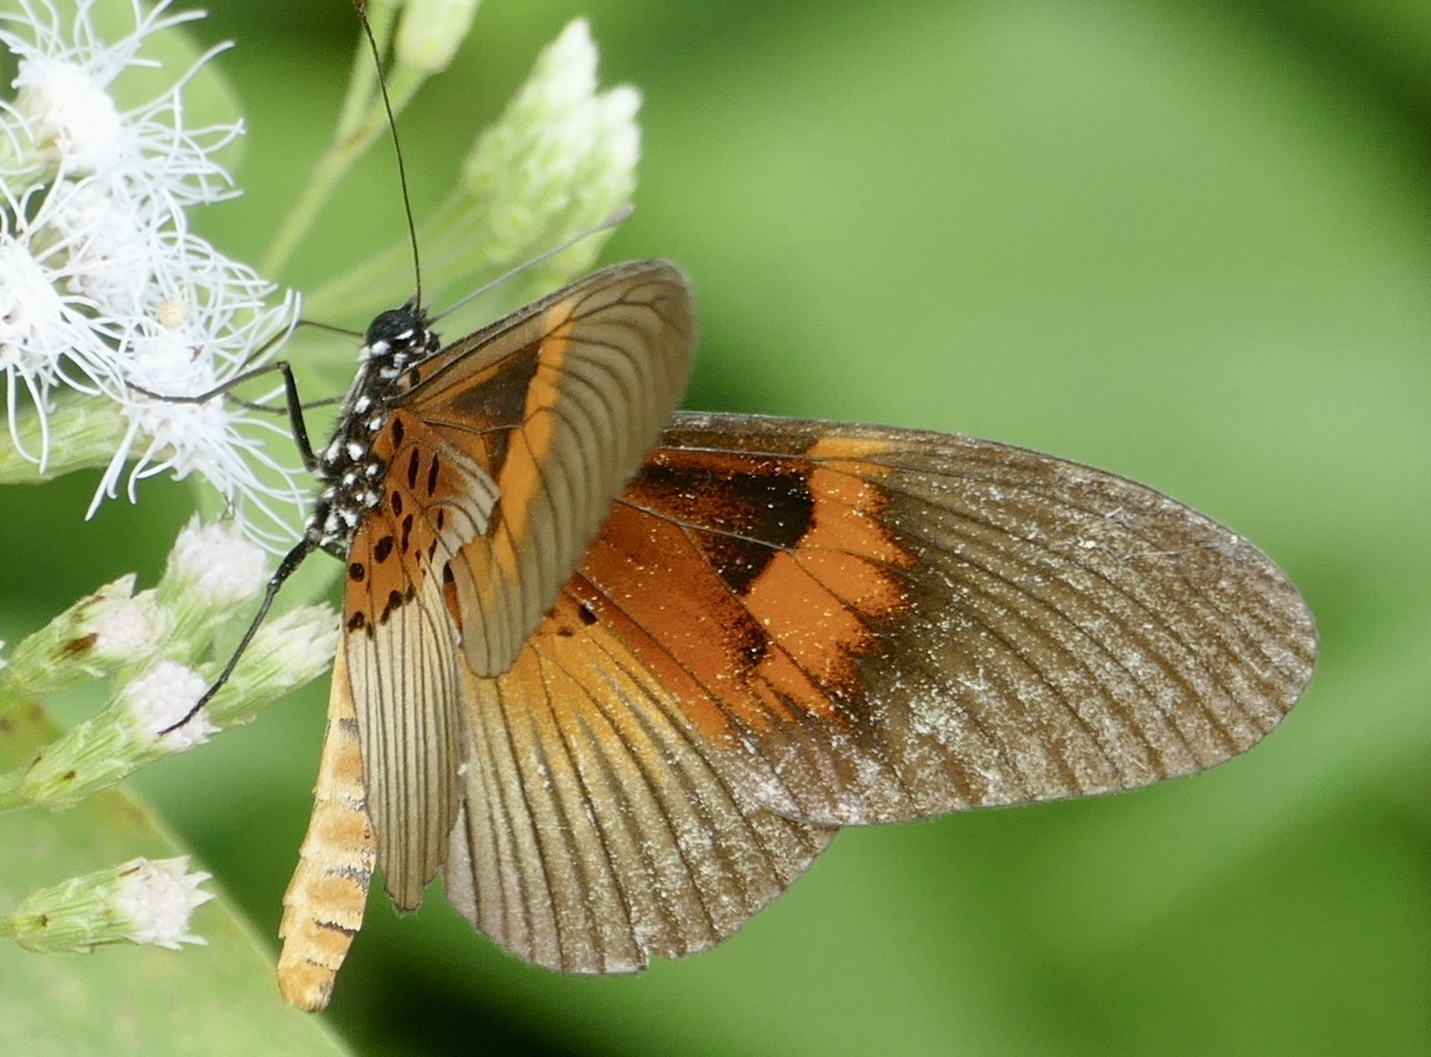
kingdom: Animalia
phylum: Arthropoda
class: Insecta
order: Lepidoptera
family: Nymphalidae
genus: Acraea
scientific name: Acraea
